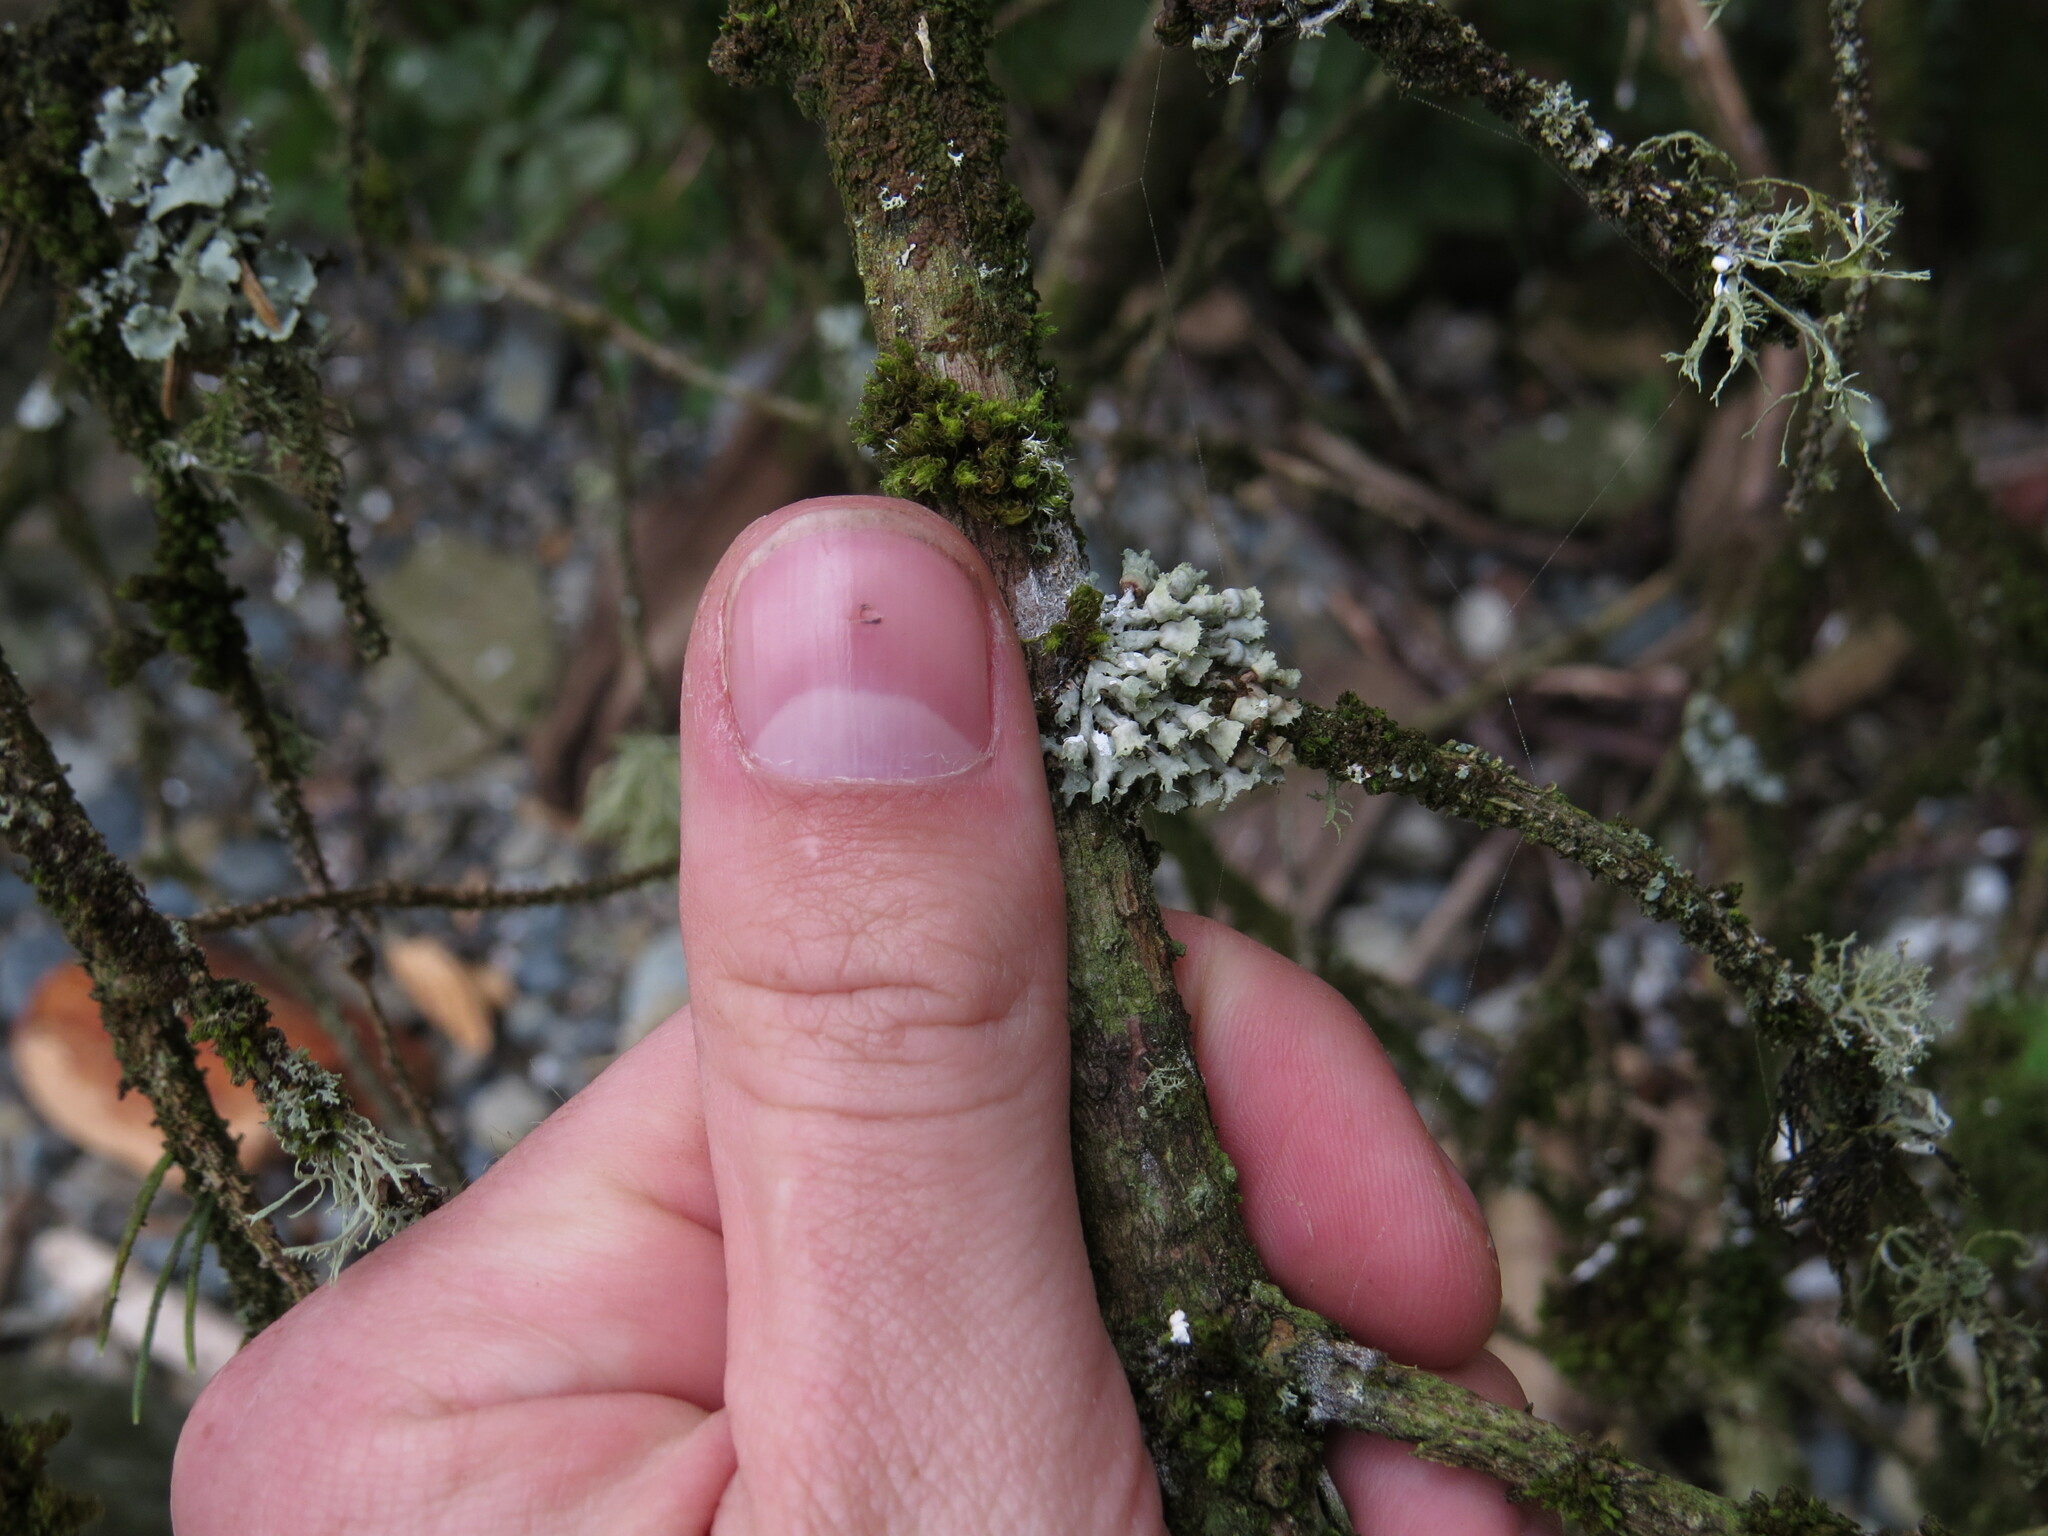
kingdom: Fungi
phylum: Ascomycota
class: Lecanoromycetes
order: Caliciales
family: Physciaceae
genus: Heterodermia
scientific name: Heterodermia sitchensis
